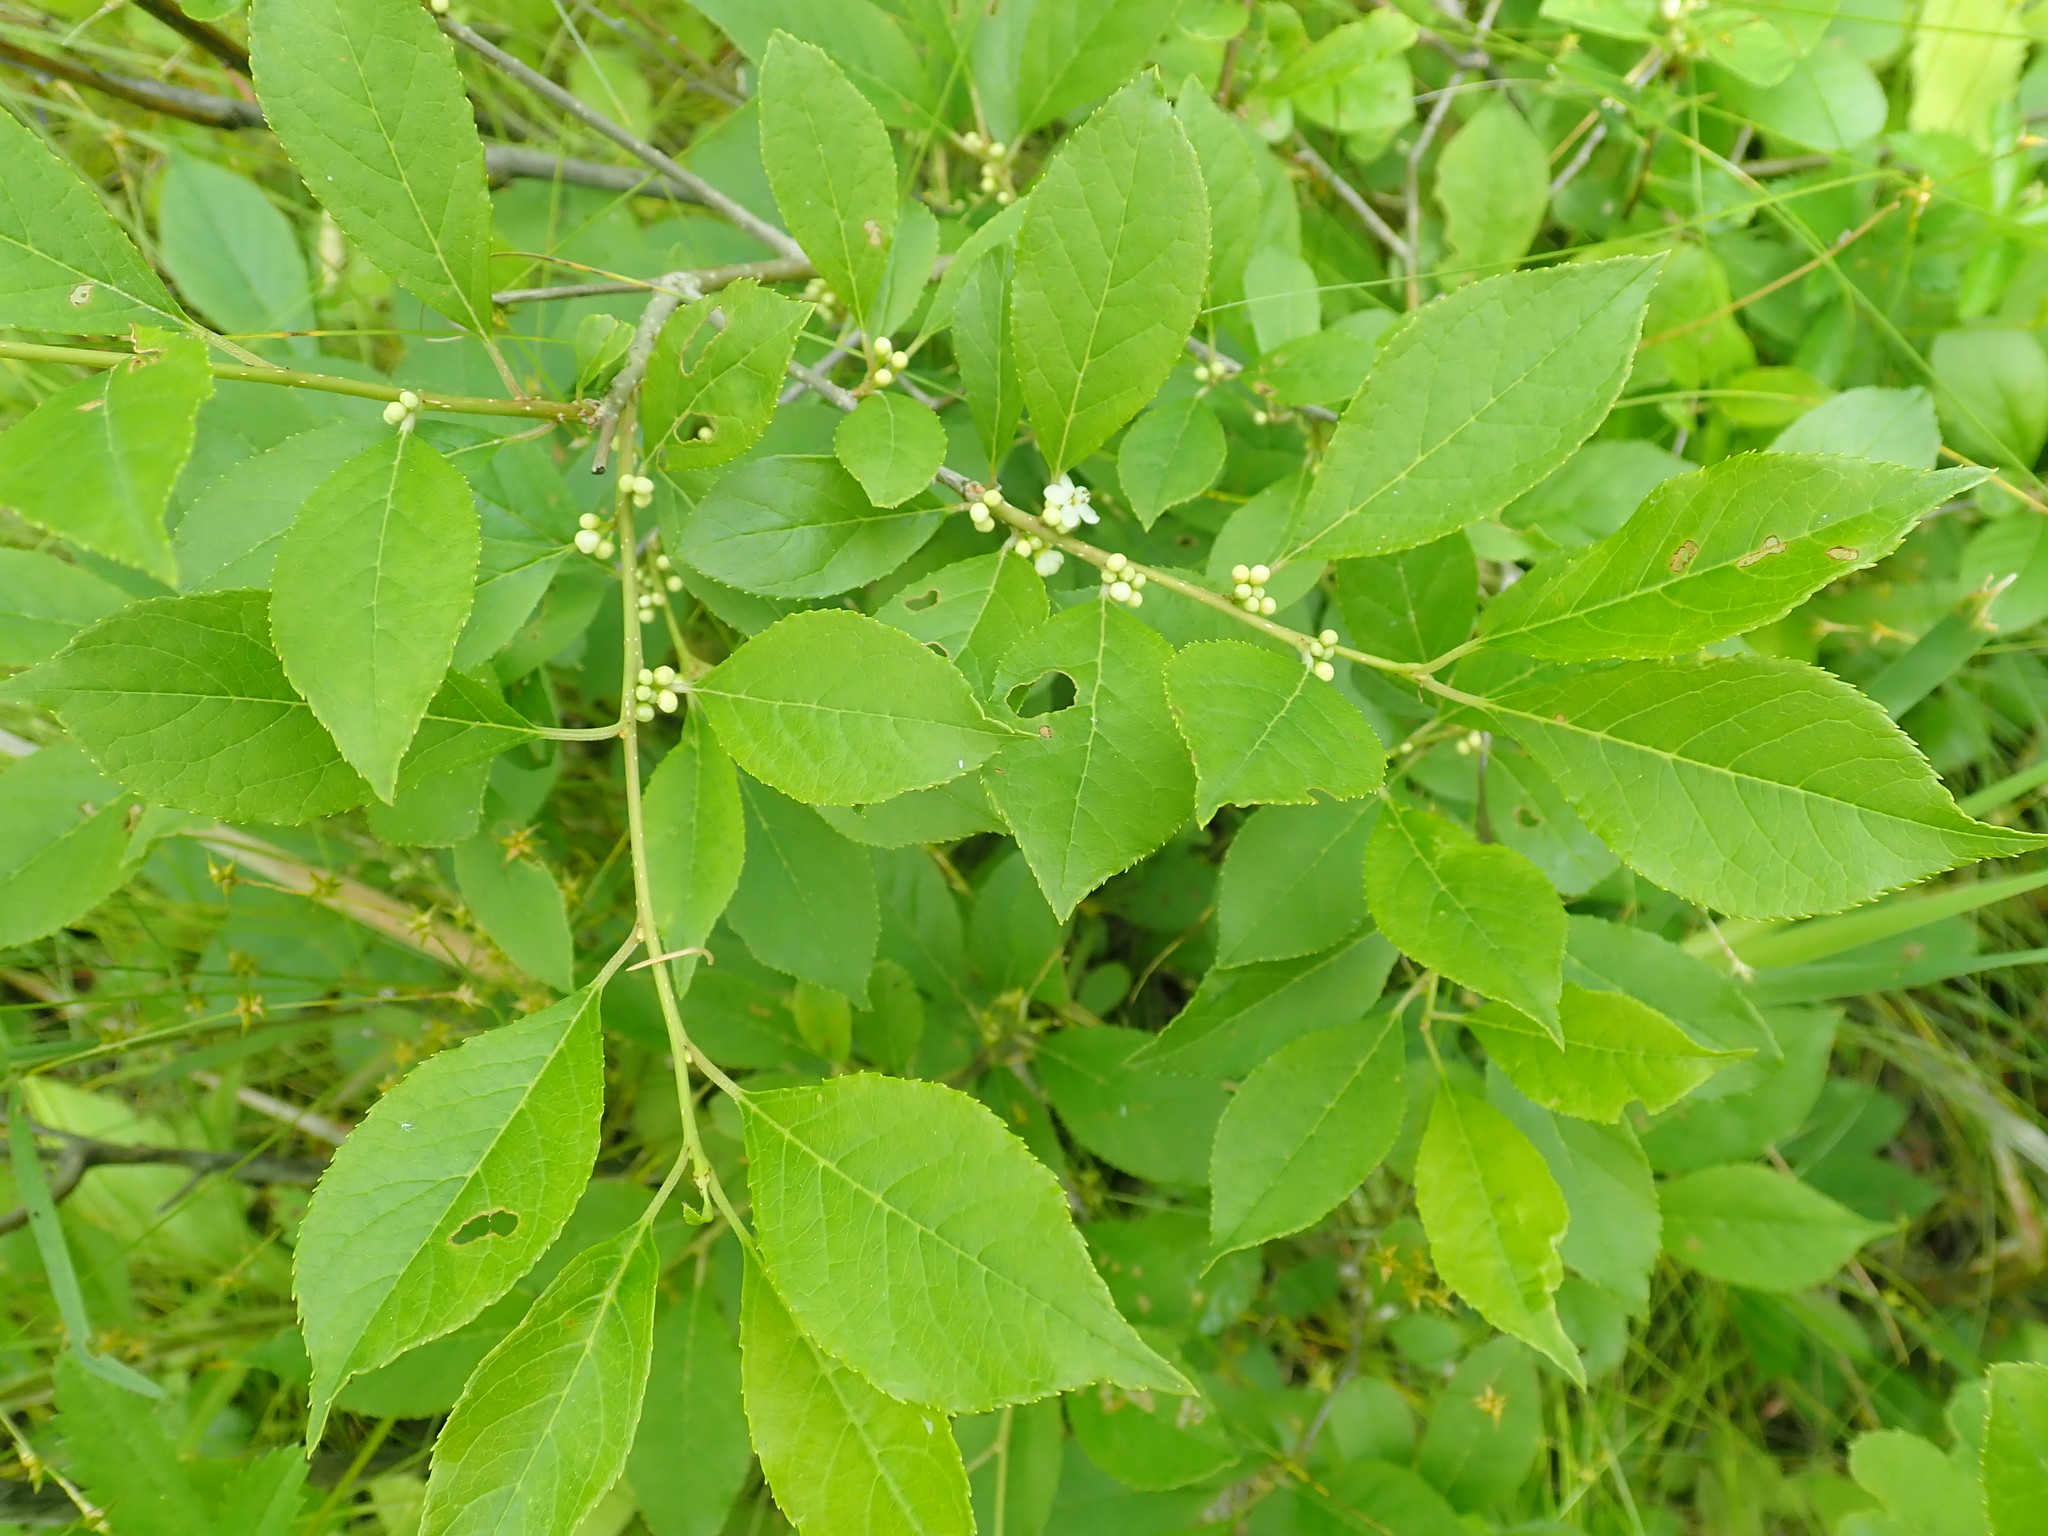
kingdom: Plantae
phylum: Tracheophyta
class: Magnoliopsida
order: Aquifoliales
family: Aquifoliaceae
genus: Ilex
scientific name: Ilex verticillata
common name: Virginia winterberry
